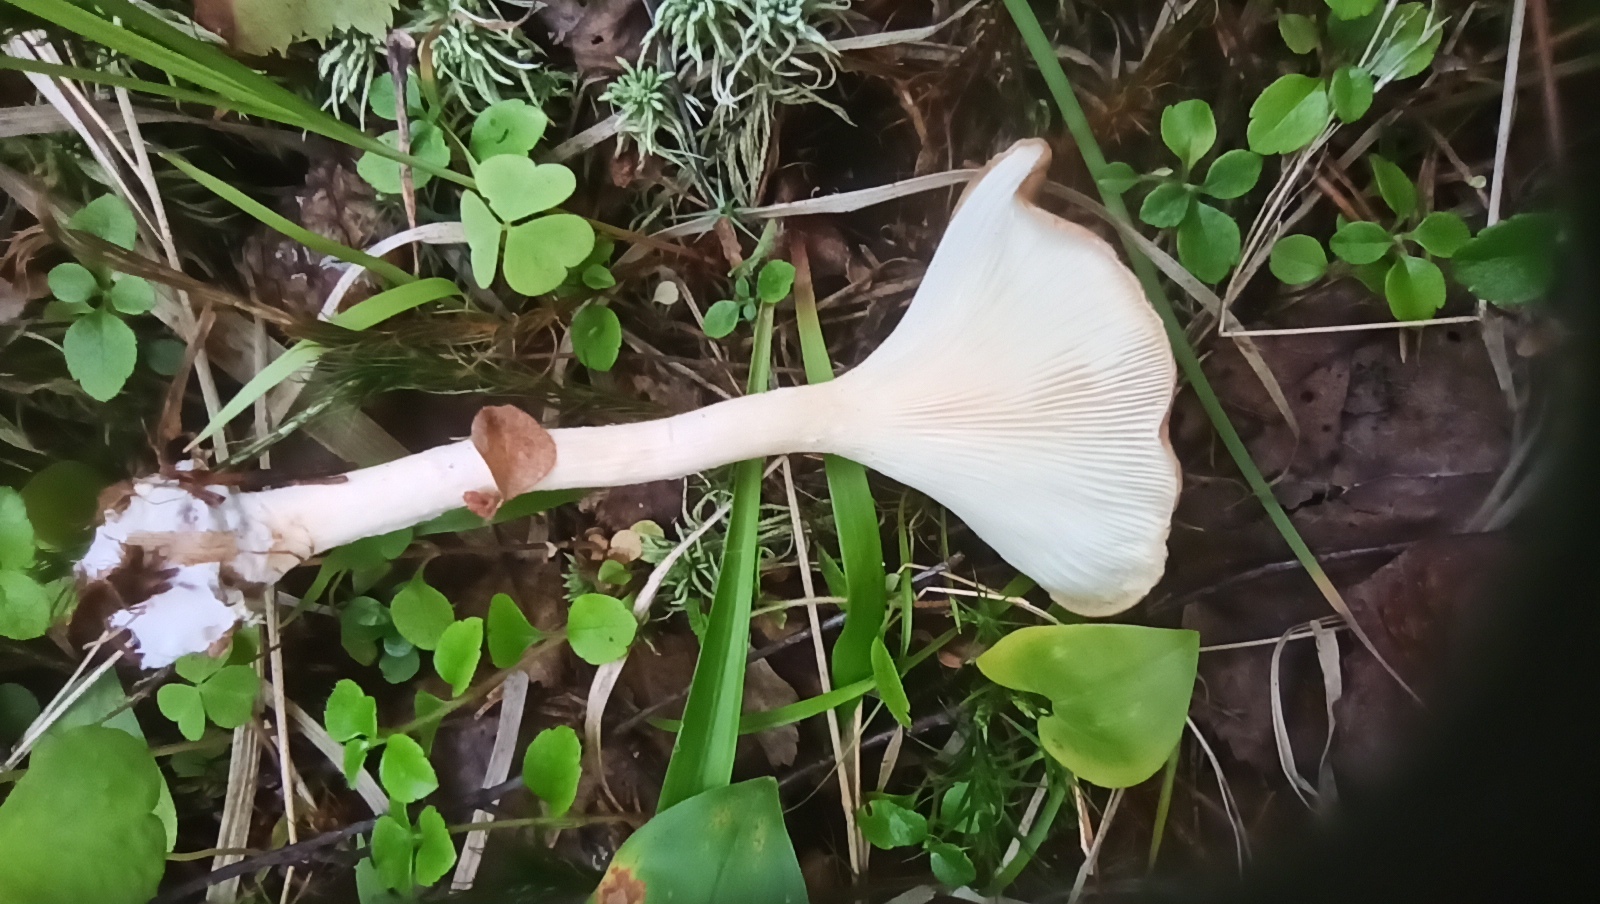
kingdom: Fungi
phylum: Basidiomycota
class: Agaricomycetes
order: Agaricales
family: Tricholomataceae
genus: Infundibulicybe
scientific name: Infundibulicybe gibba
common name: Common funnel
